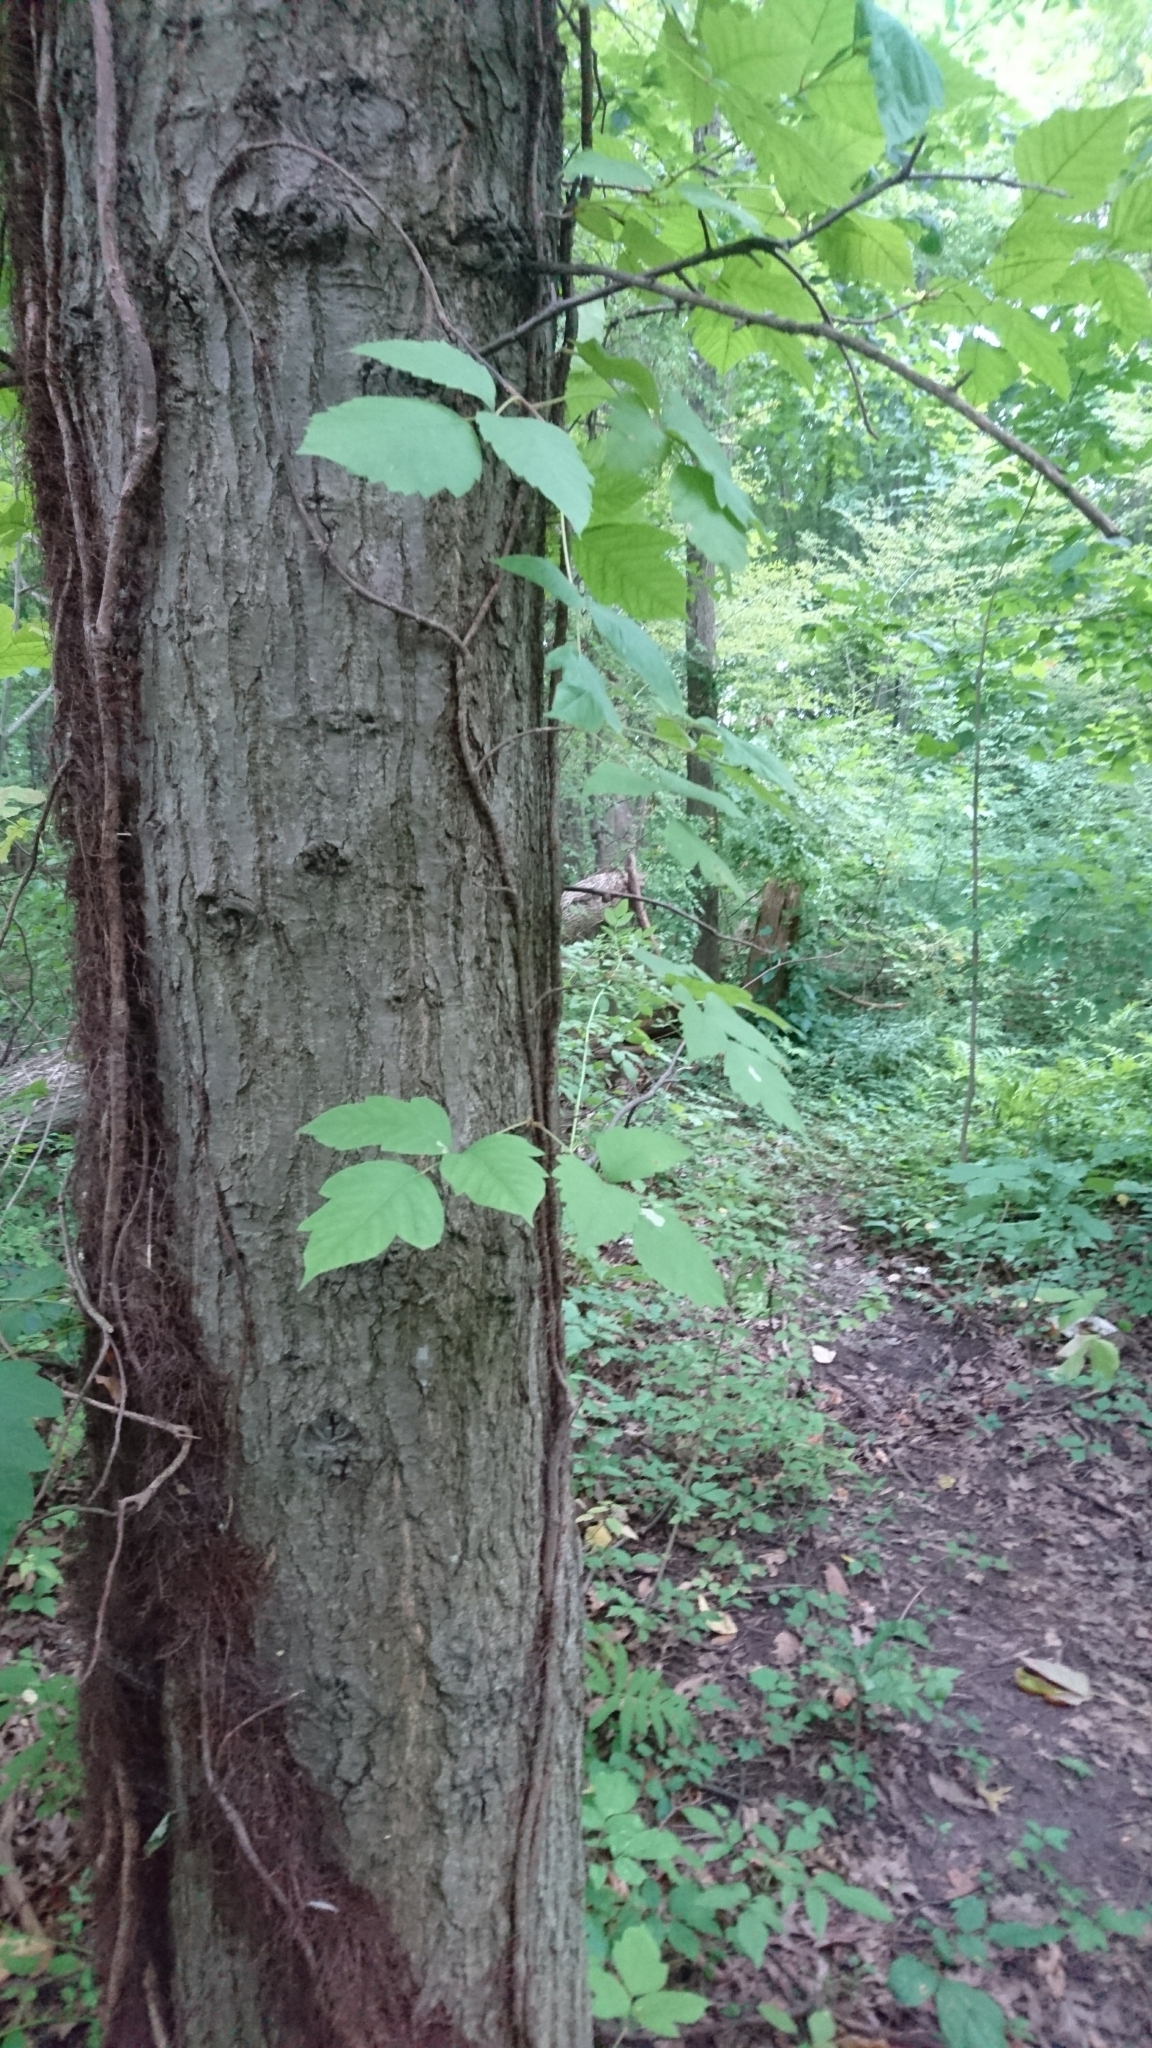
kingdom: Plantae
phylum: Tracheophyta
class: Magnoliopsida
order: Sapindales
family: Anacardiaceae
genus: Toxicodendron
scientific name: Toxicodendron radicans
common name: Poison ivy
